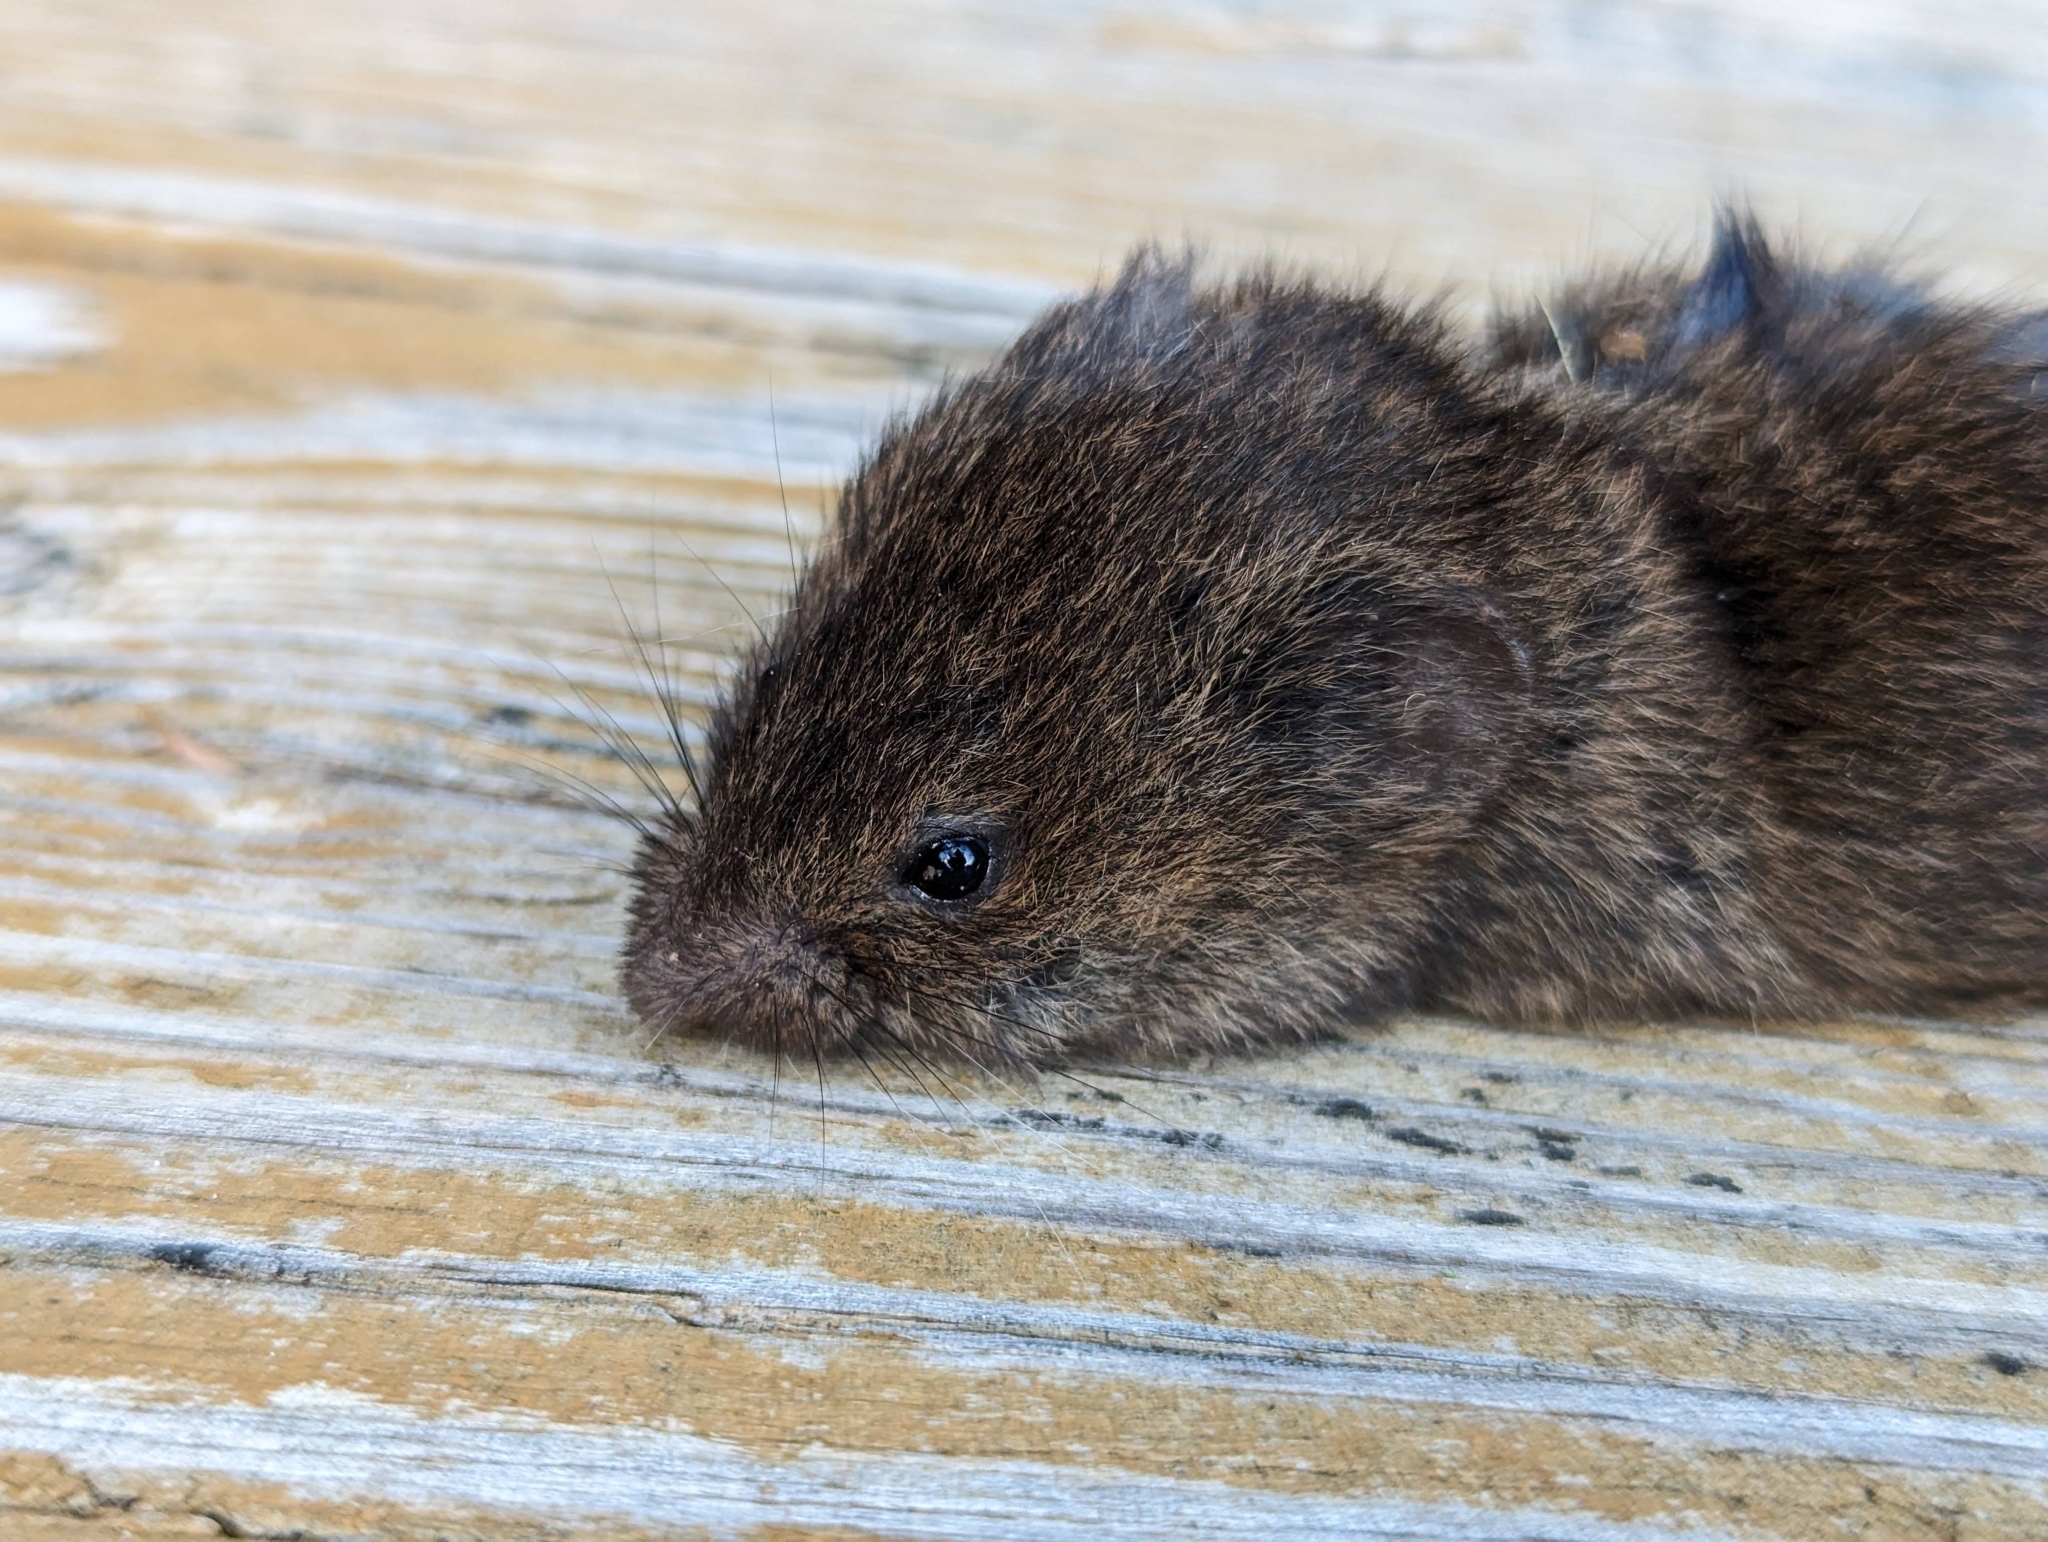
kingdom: Animalia
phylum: Chordata
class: Mammalia
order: Rodentia
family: Cricetidae
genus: Microtus
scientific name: Microtus pennsylvanicus
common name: Meadow vole
